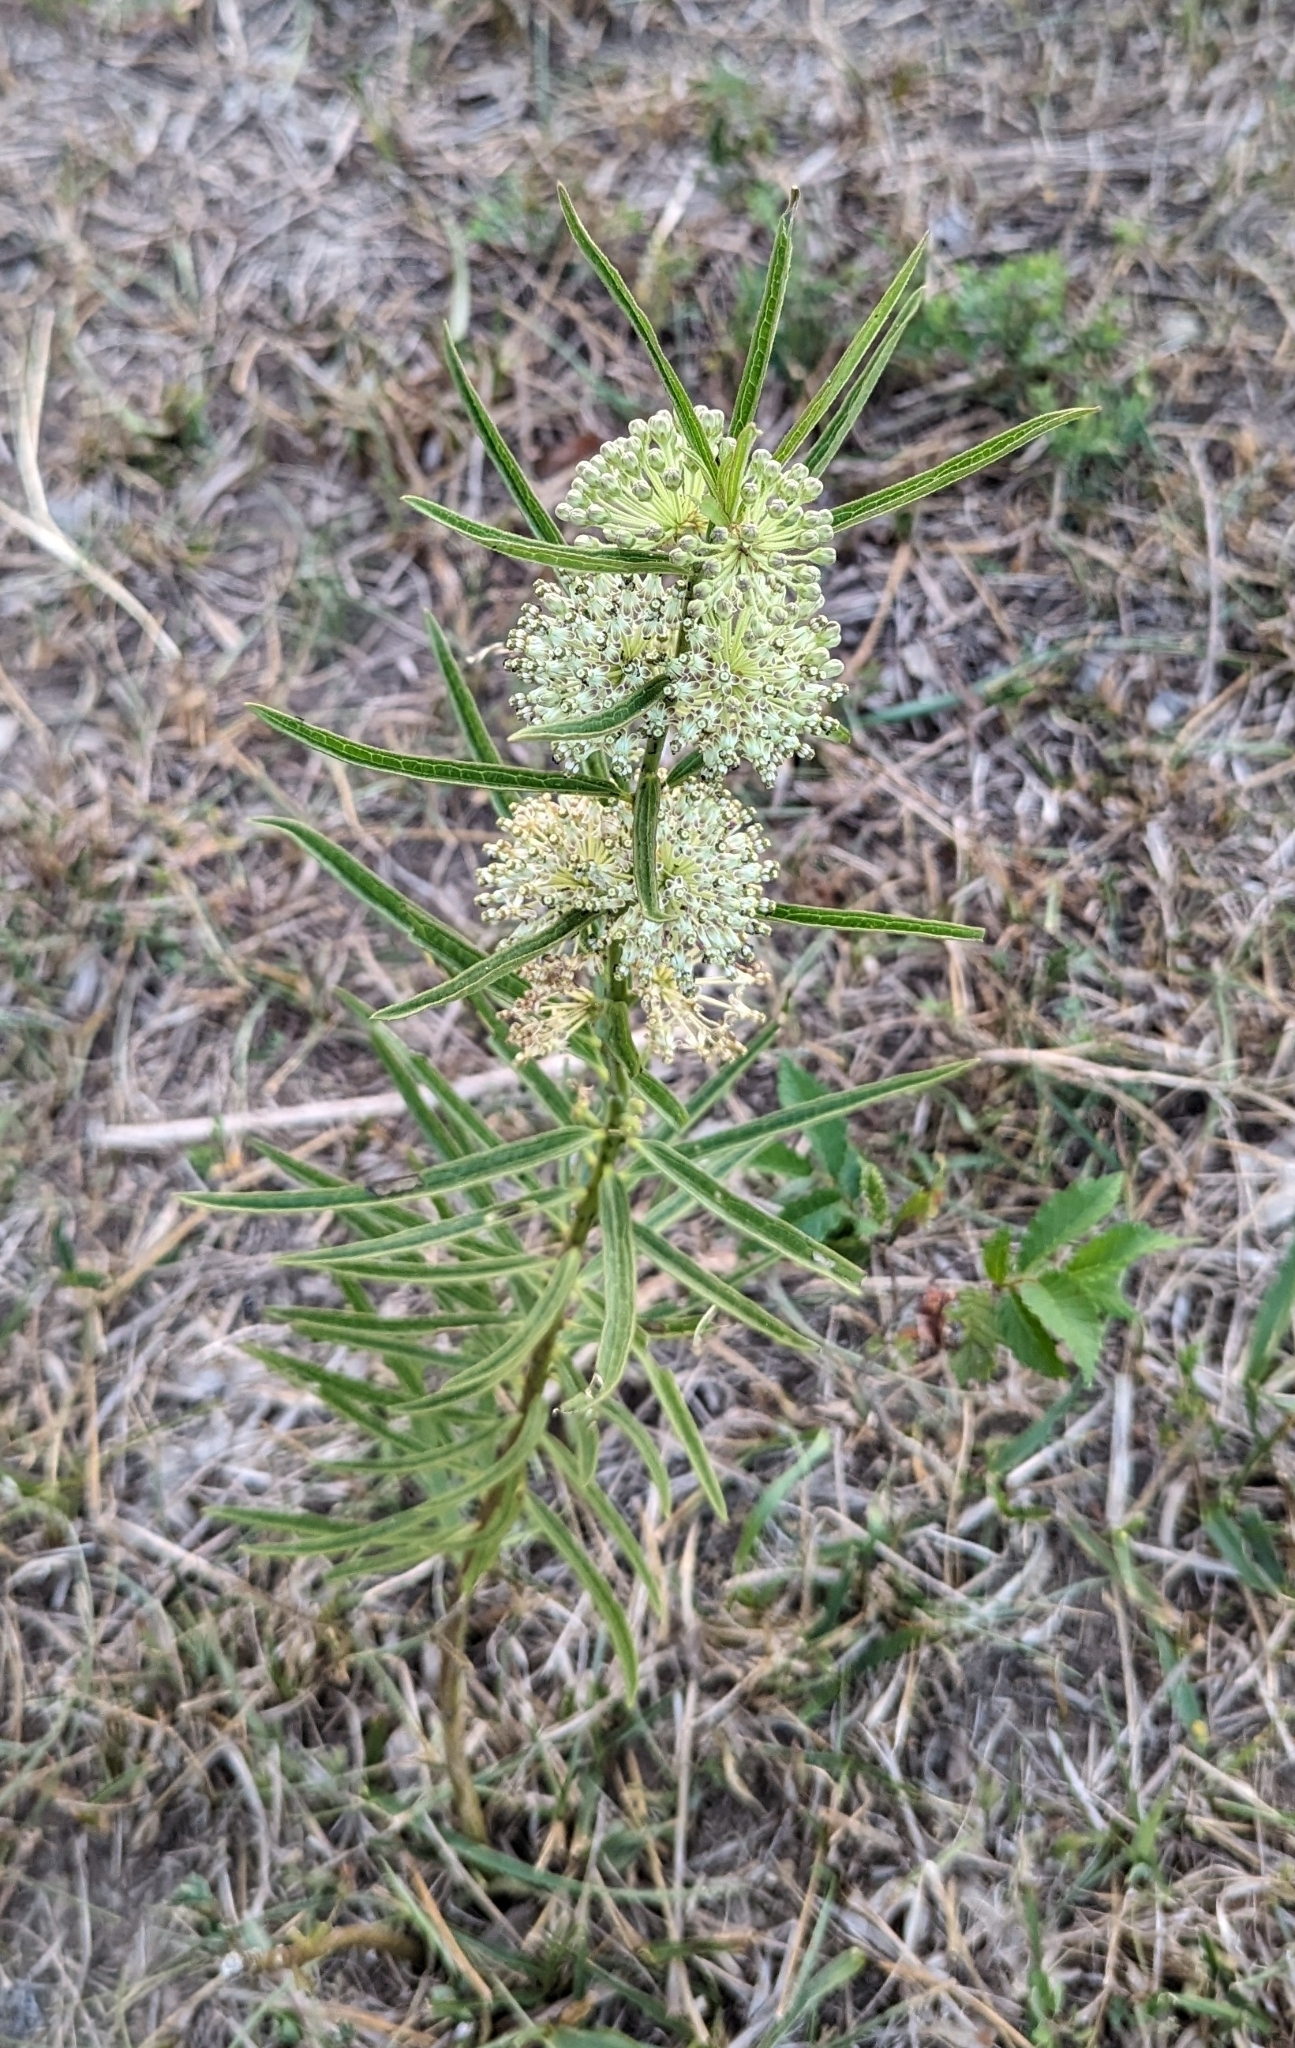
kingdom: Plantae
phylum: Tracheophyta
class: Magnoliopsida
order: Gentianales
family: Apocynaceae
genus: Asclepias
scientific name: Asclepias hirtella
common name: Prairie milkweed
